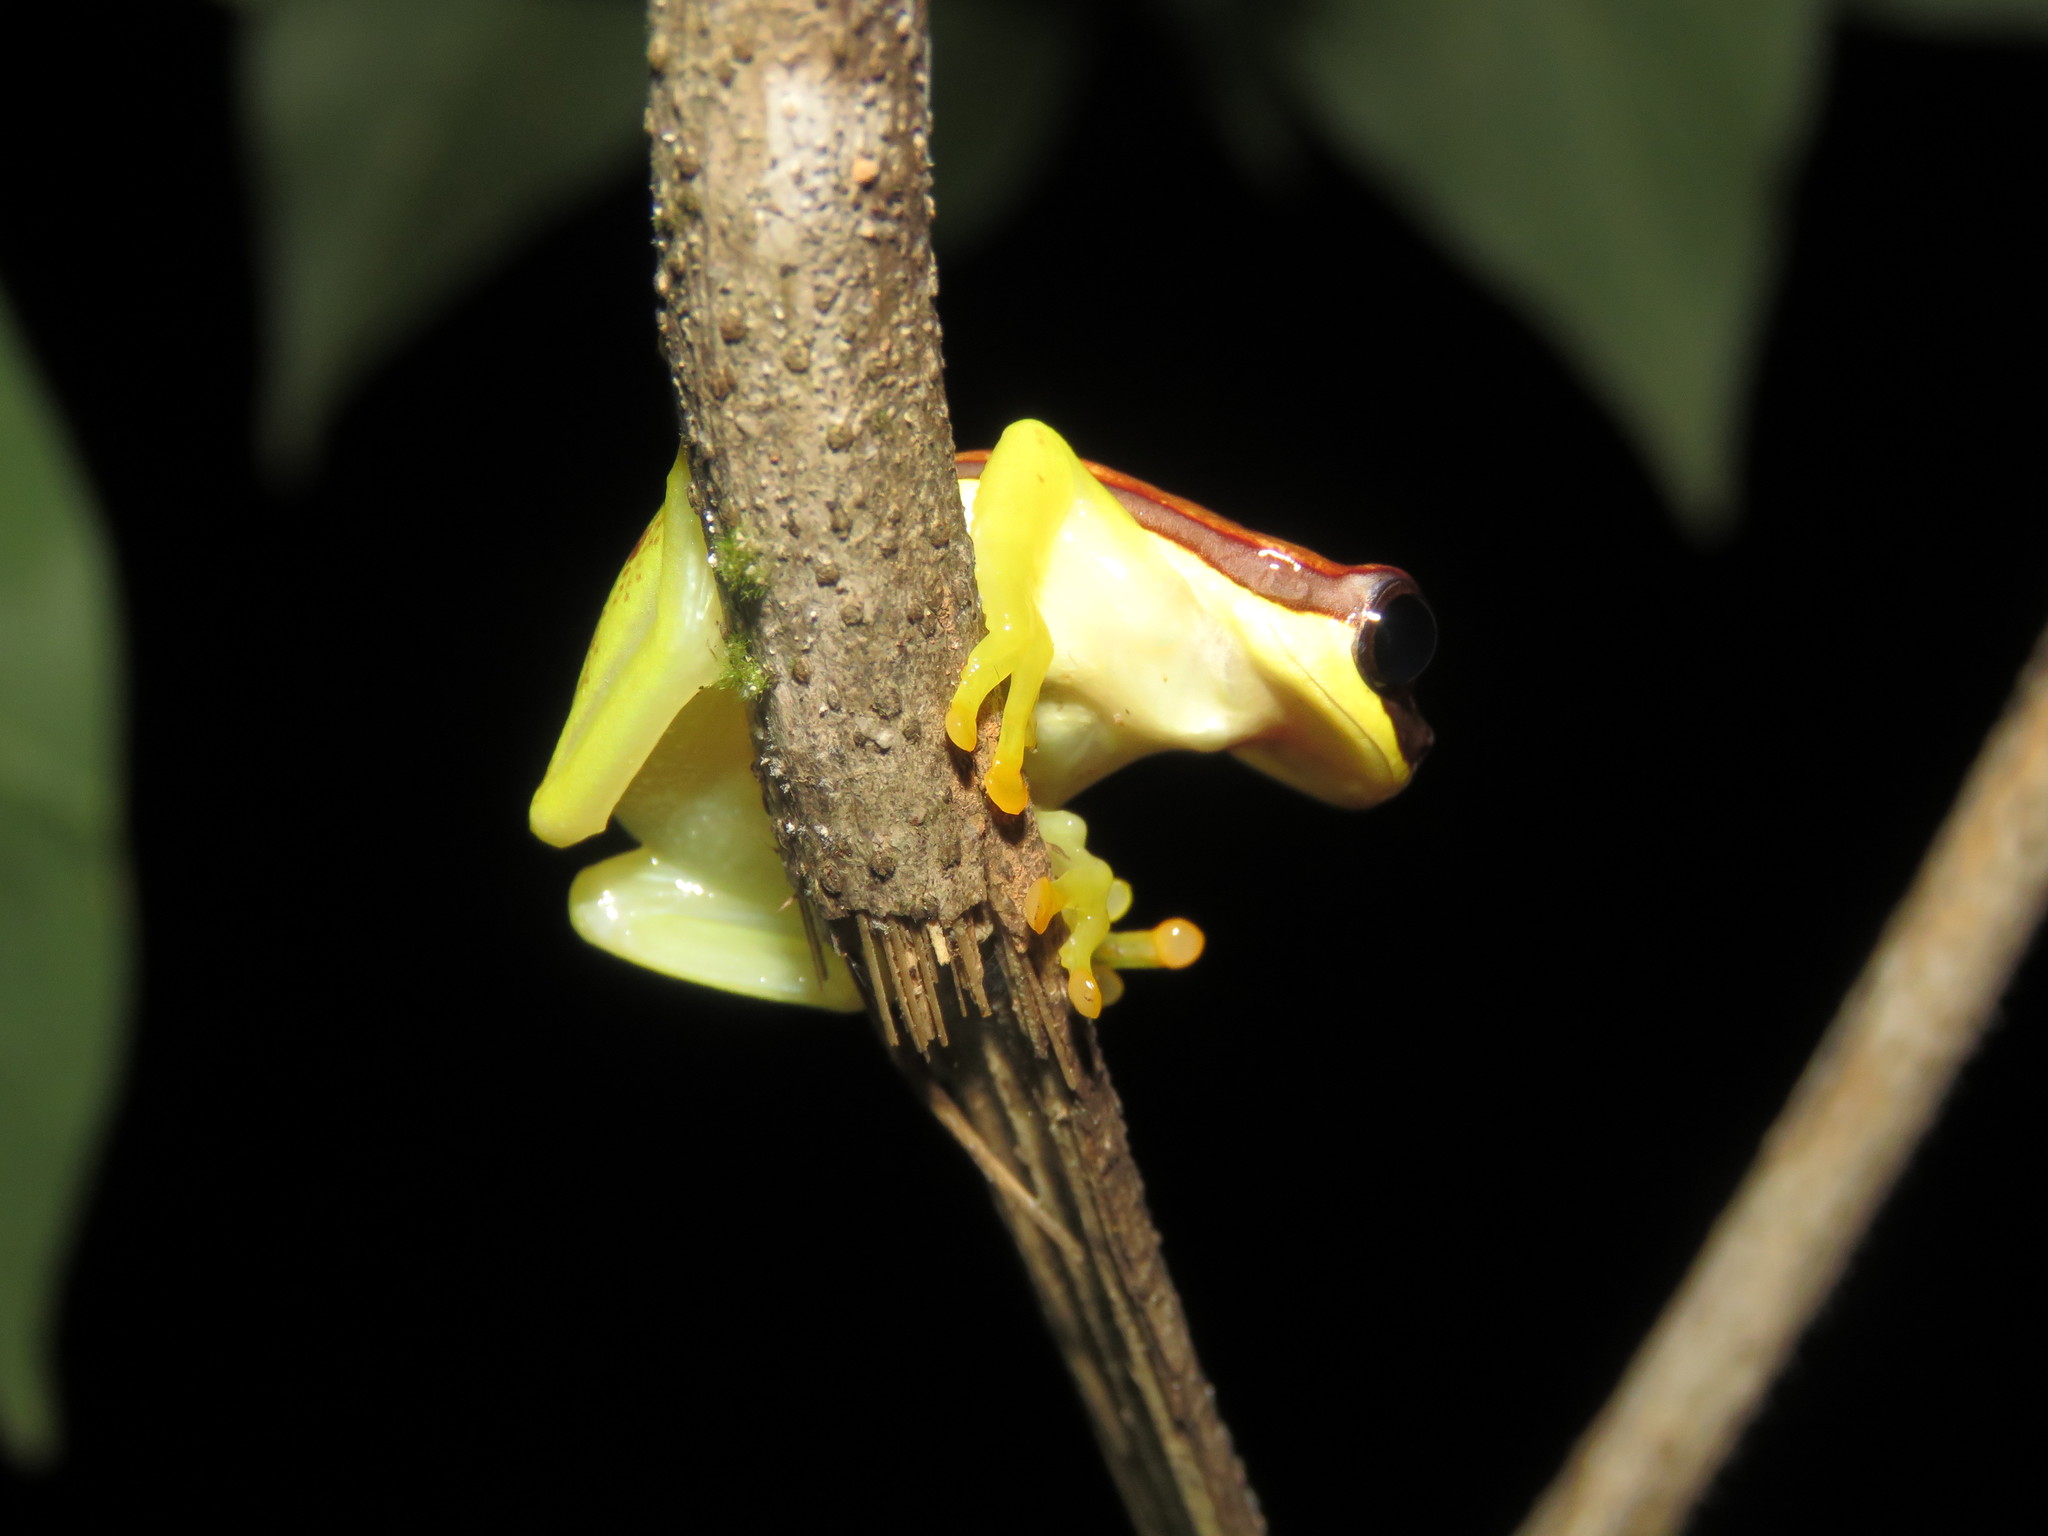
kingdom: Animalia
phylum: Chordata
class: Amphibia
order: Anura
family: Hylidae
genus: Dendropsophus
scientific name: Dendropsophus rhodopeplus
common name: Red-skirted treefrog
